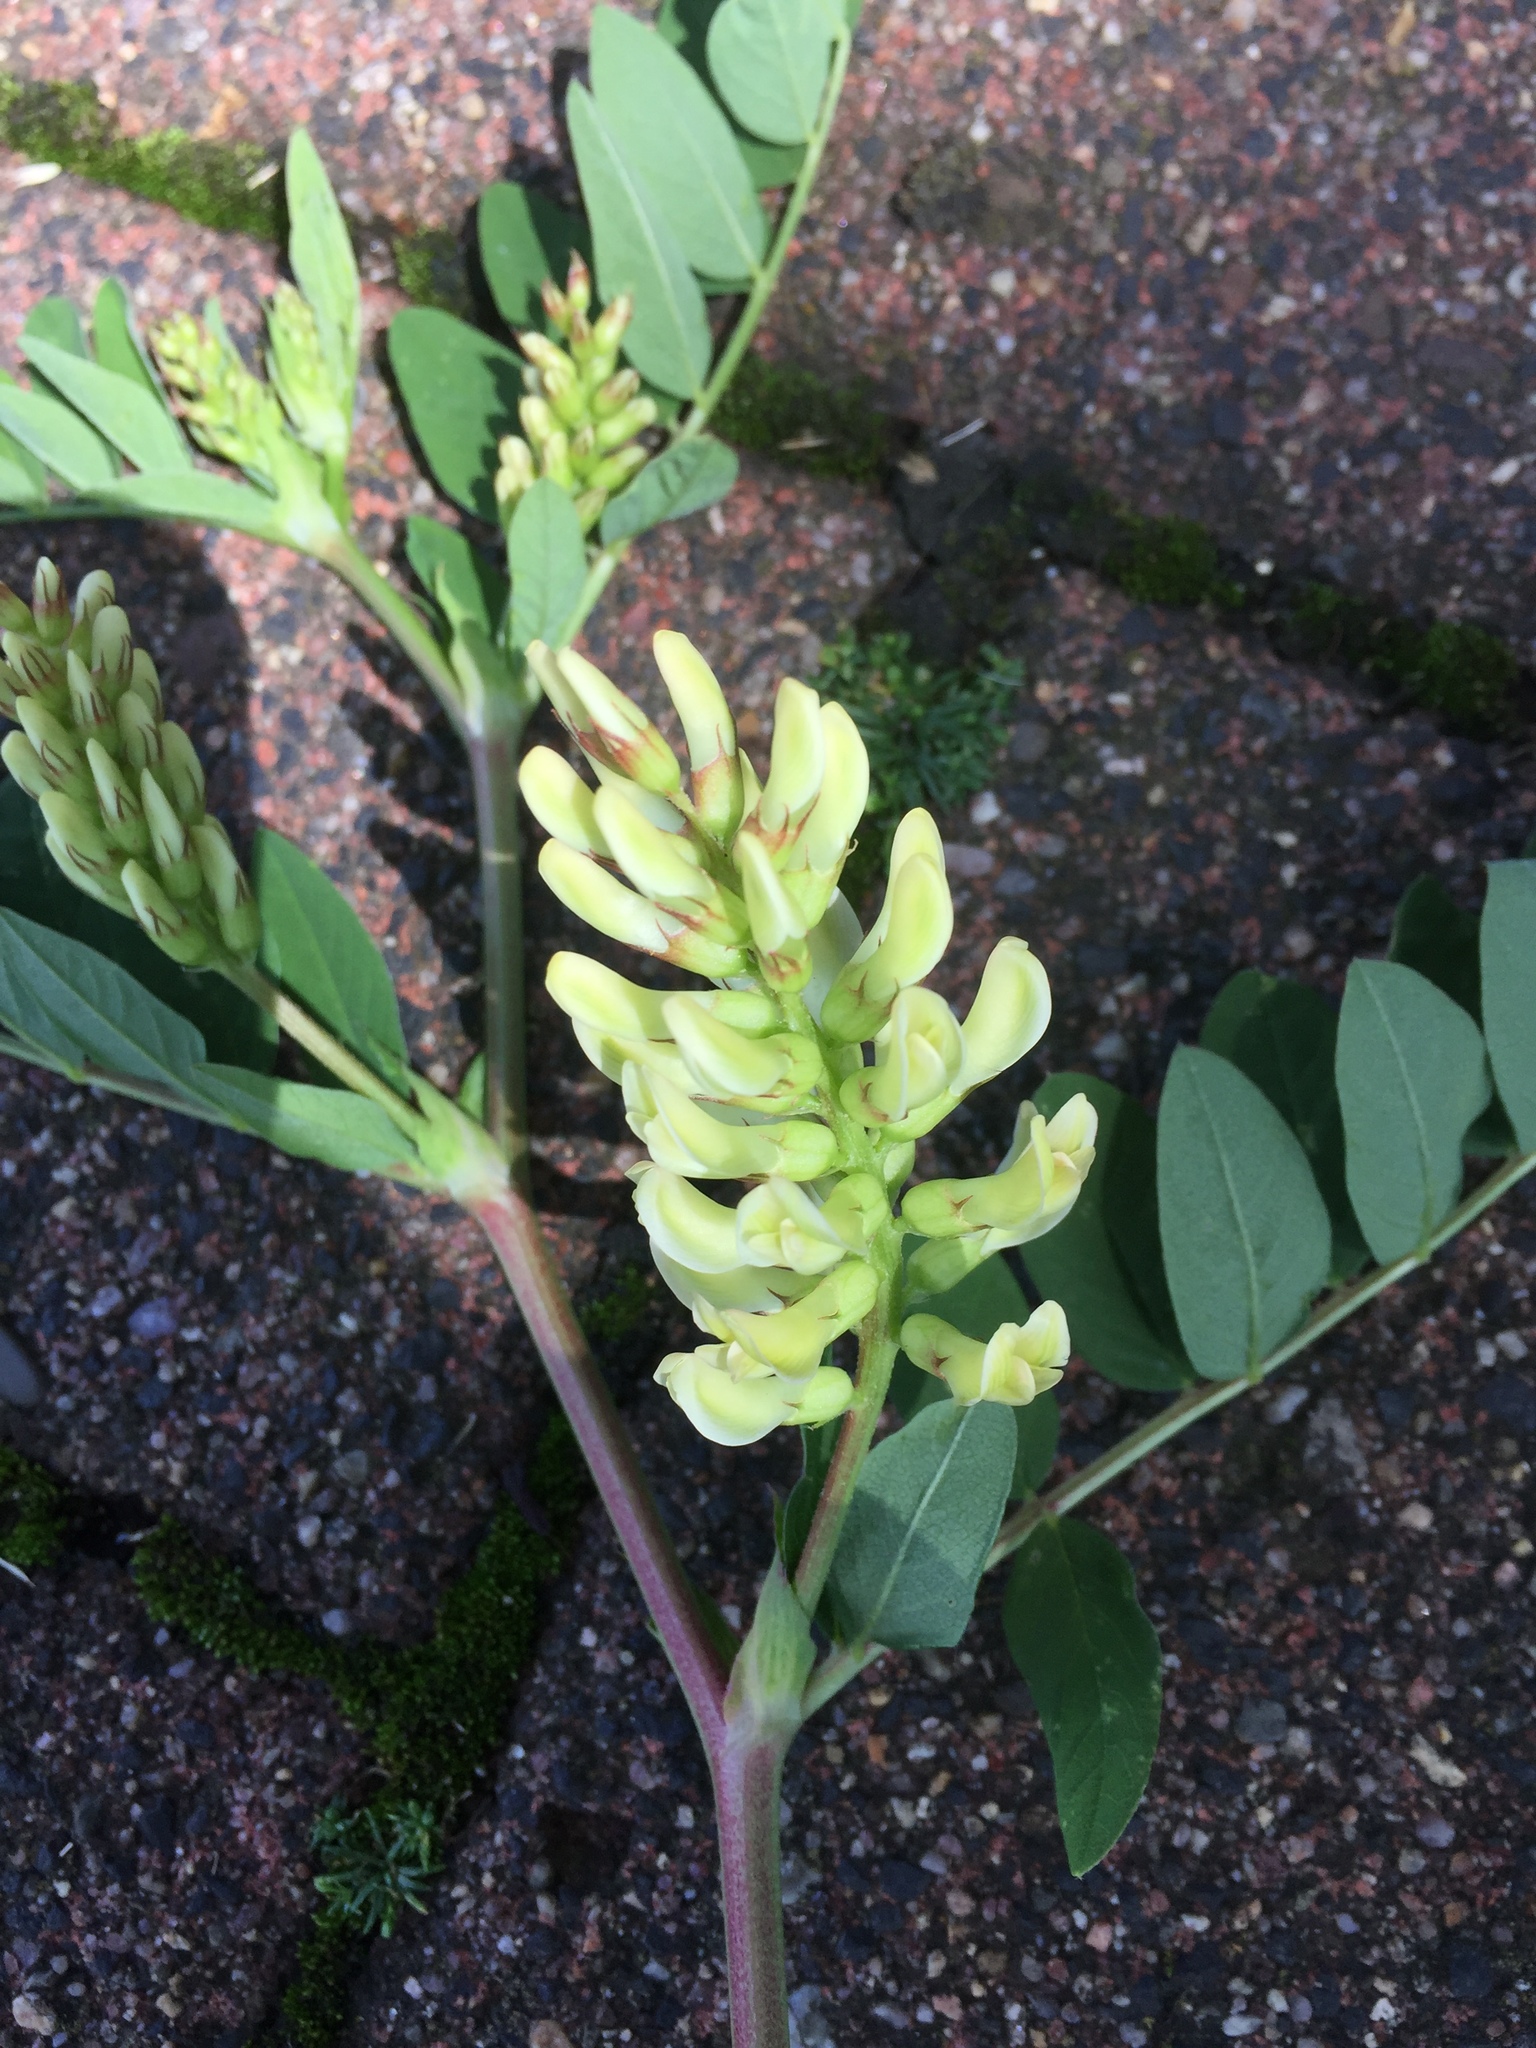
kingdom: Plantae
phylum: Tracheophyta
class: Magnoliopsida
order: Fabales
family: Fabaceae
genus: Astragalus
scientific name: Astragalus glycyphyllos
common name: Wild liquorice
